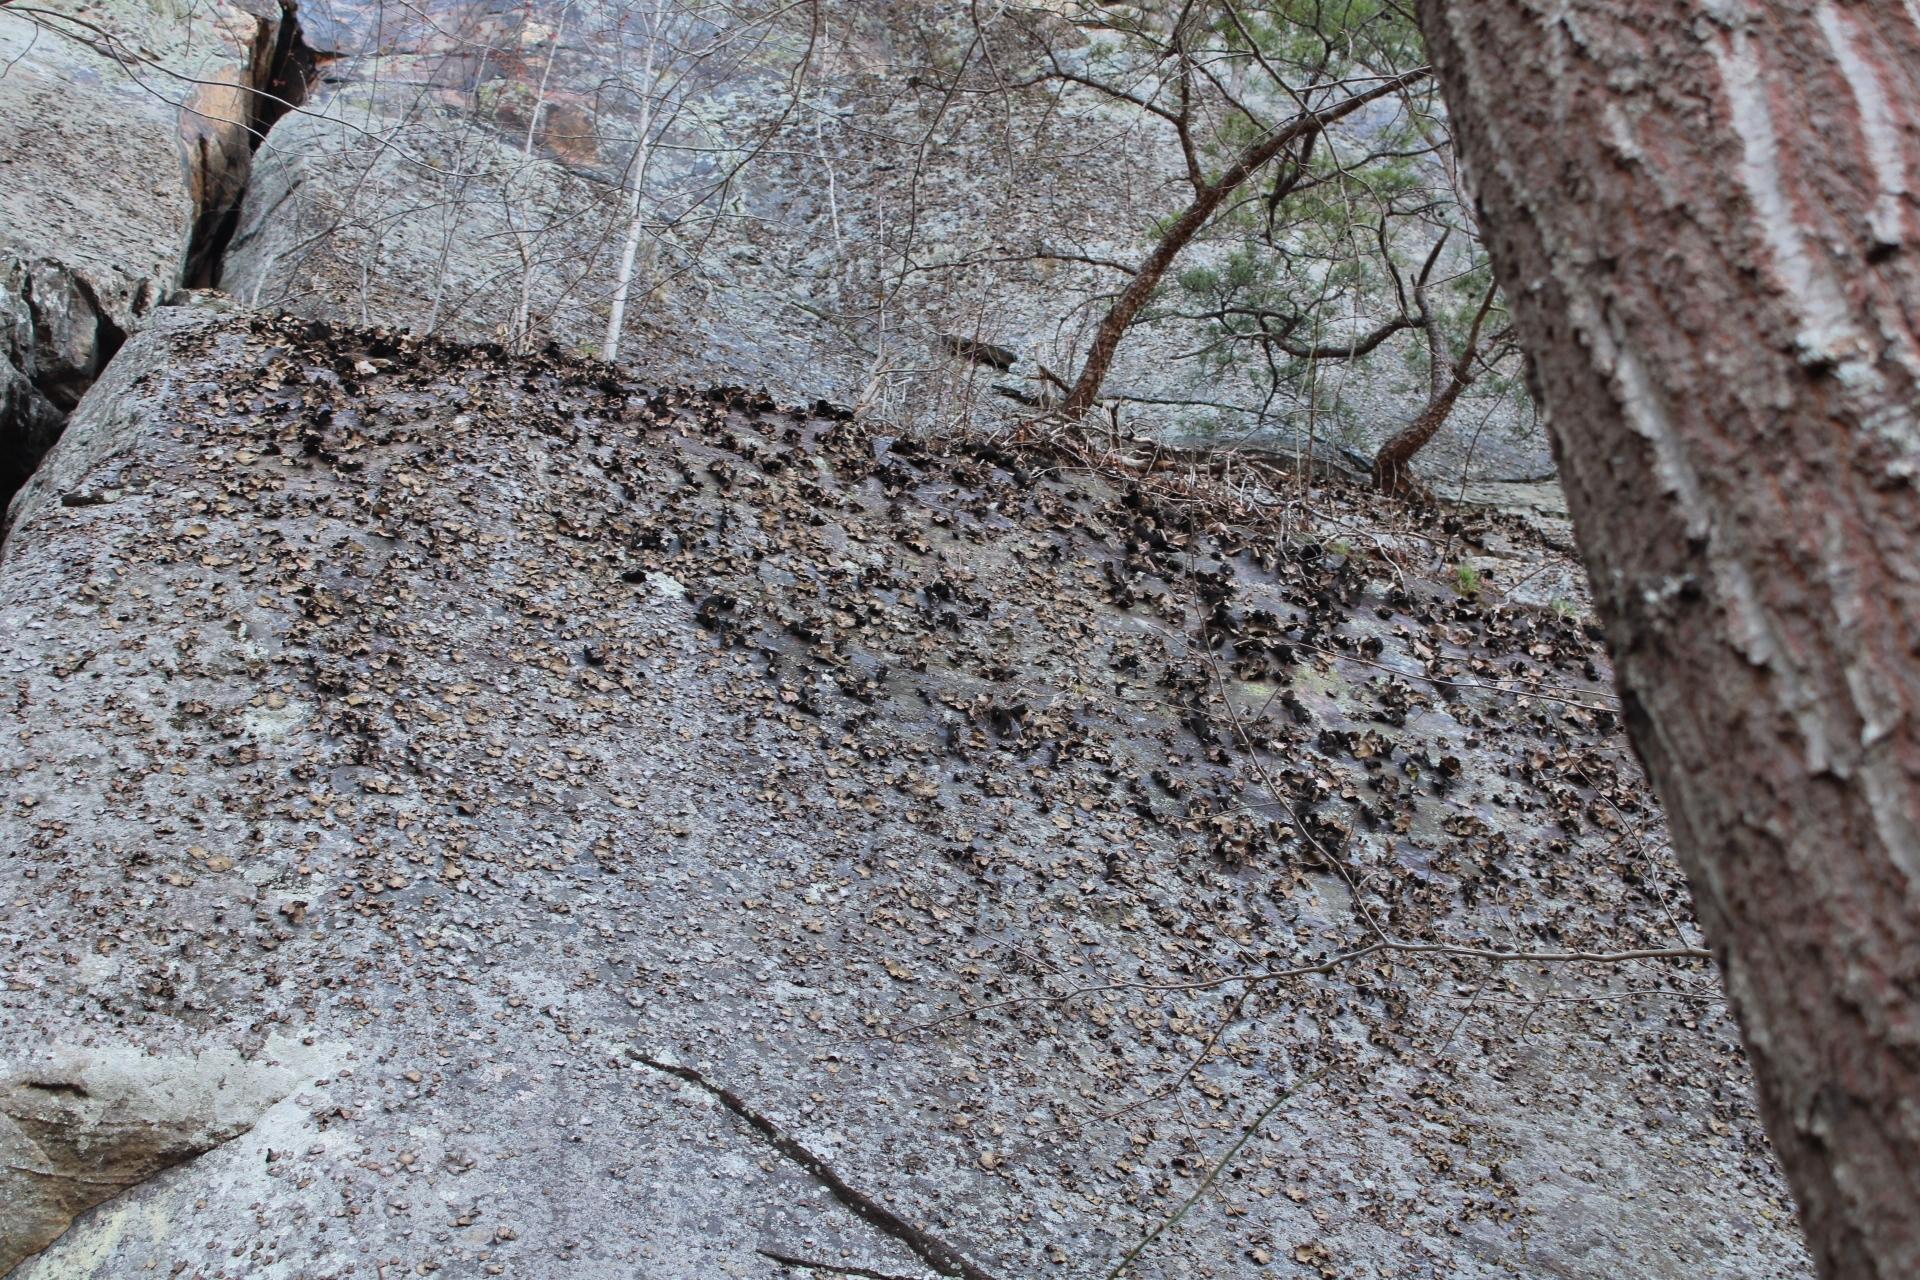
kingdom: Fungi
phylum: Ascomycota
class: Lecanoromycetes
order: Umbilicariales
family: Umbilicariaceae
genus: Umbilicaria
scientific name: Umbilicaria mammulata
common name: Smooth rock tripe
